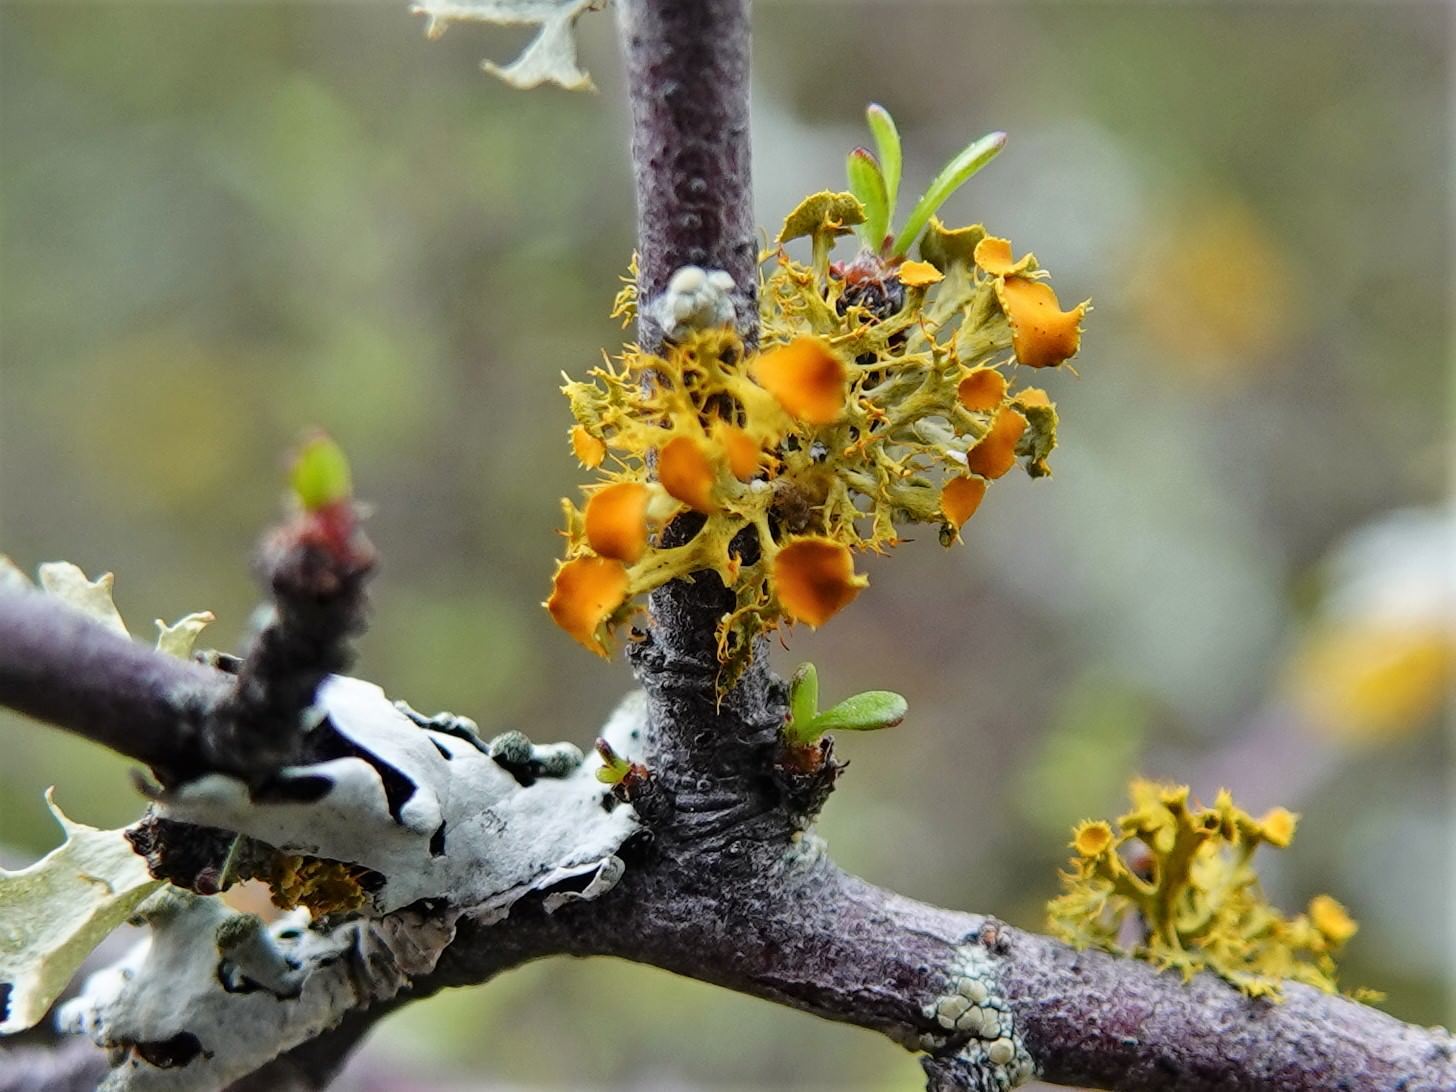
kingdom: Fungi
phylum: Ascomycota
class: Lecanoromycetes
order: Teloschistales
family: Teloschistaceae
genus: Niorma
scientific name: Niorma chrysophthalma
